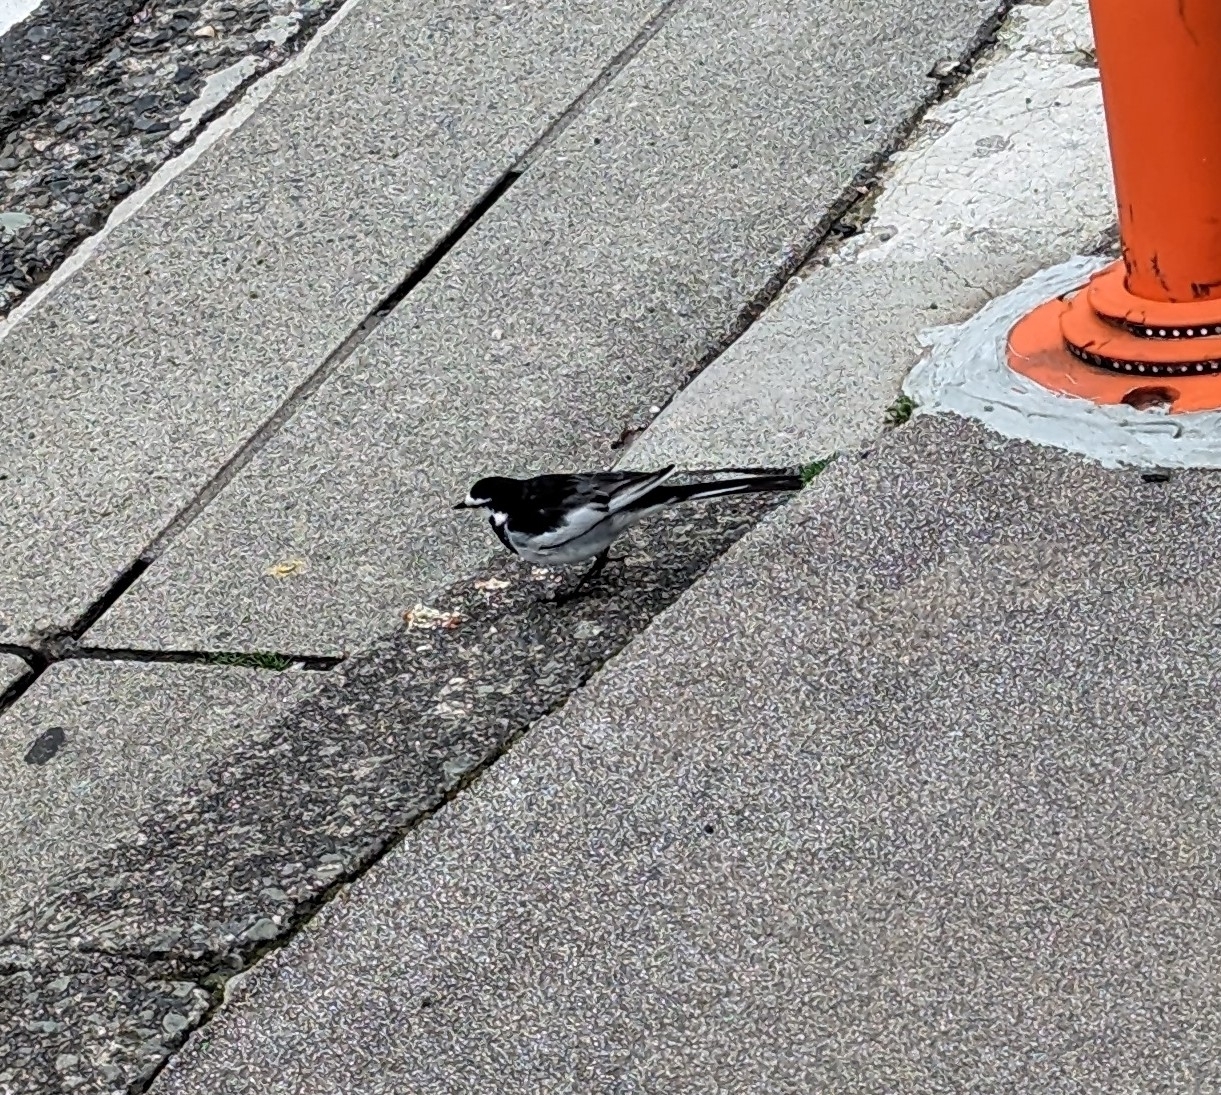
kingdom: Animalia
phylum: Chordata
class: Aves
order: Passeriformes
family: Motacillidae
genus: Motacilla
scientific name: Motacilla alba
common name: White wagtail
